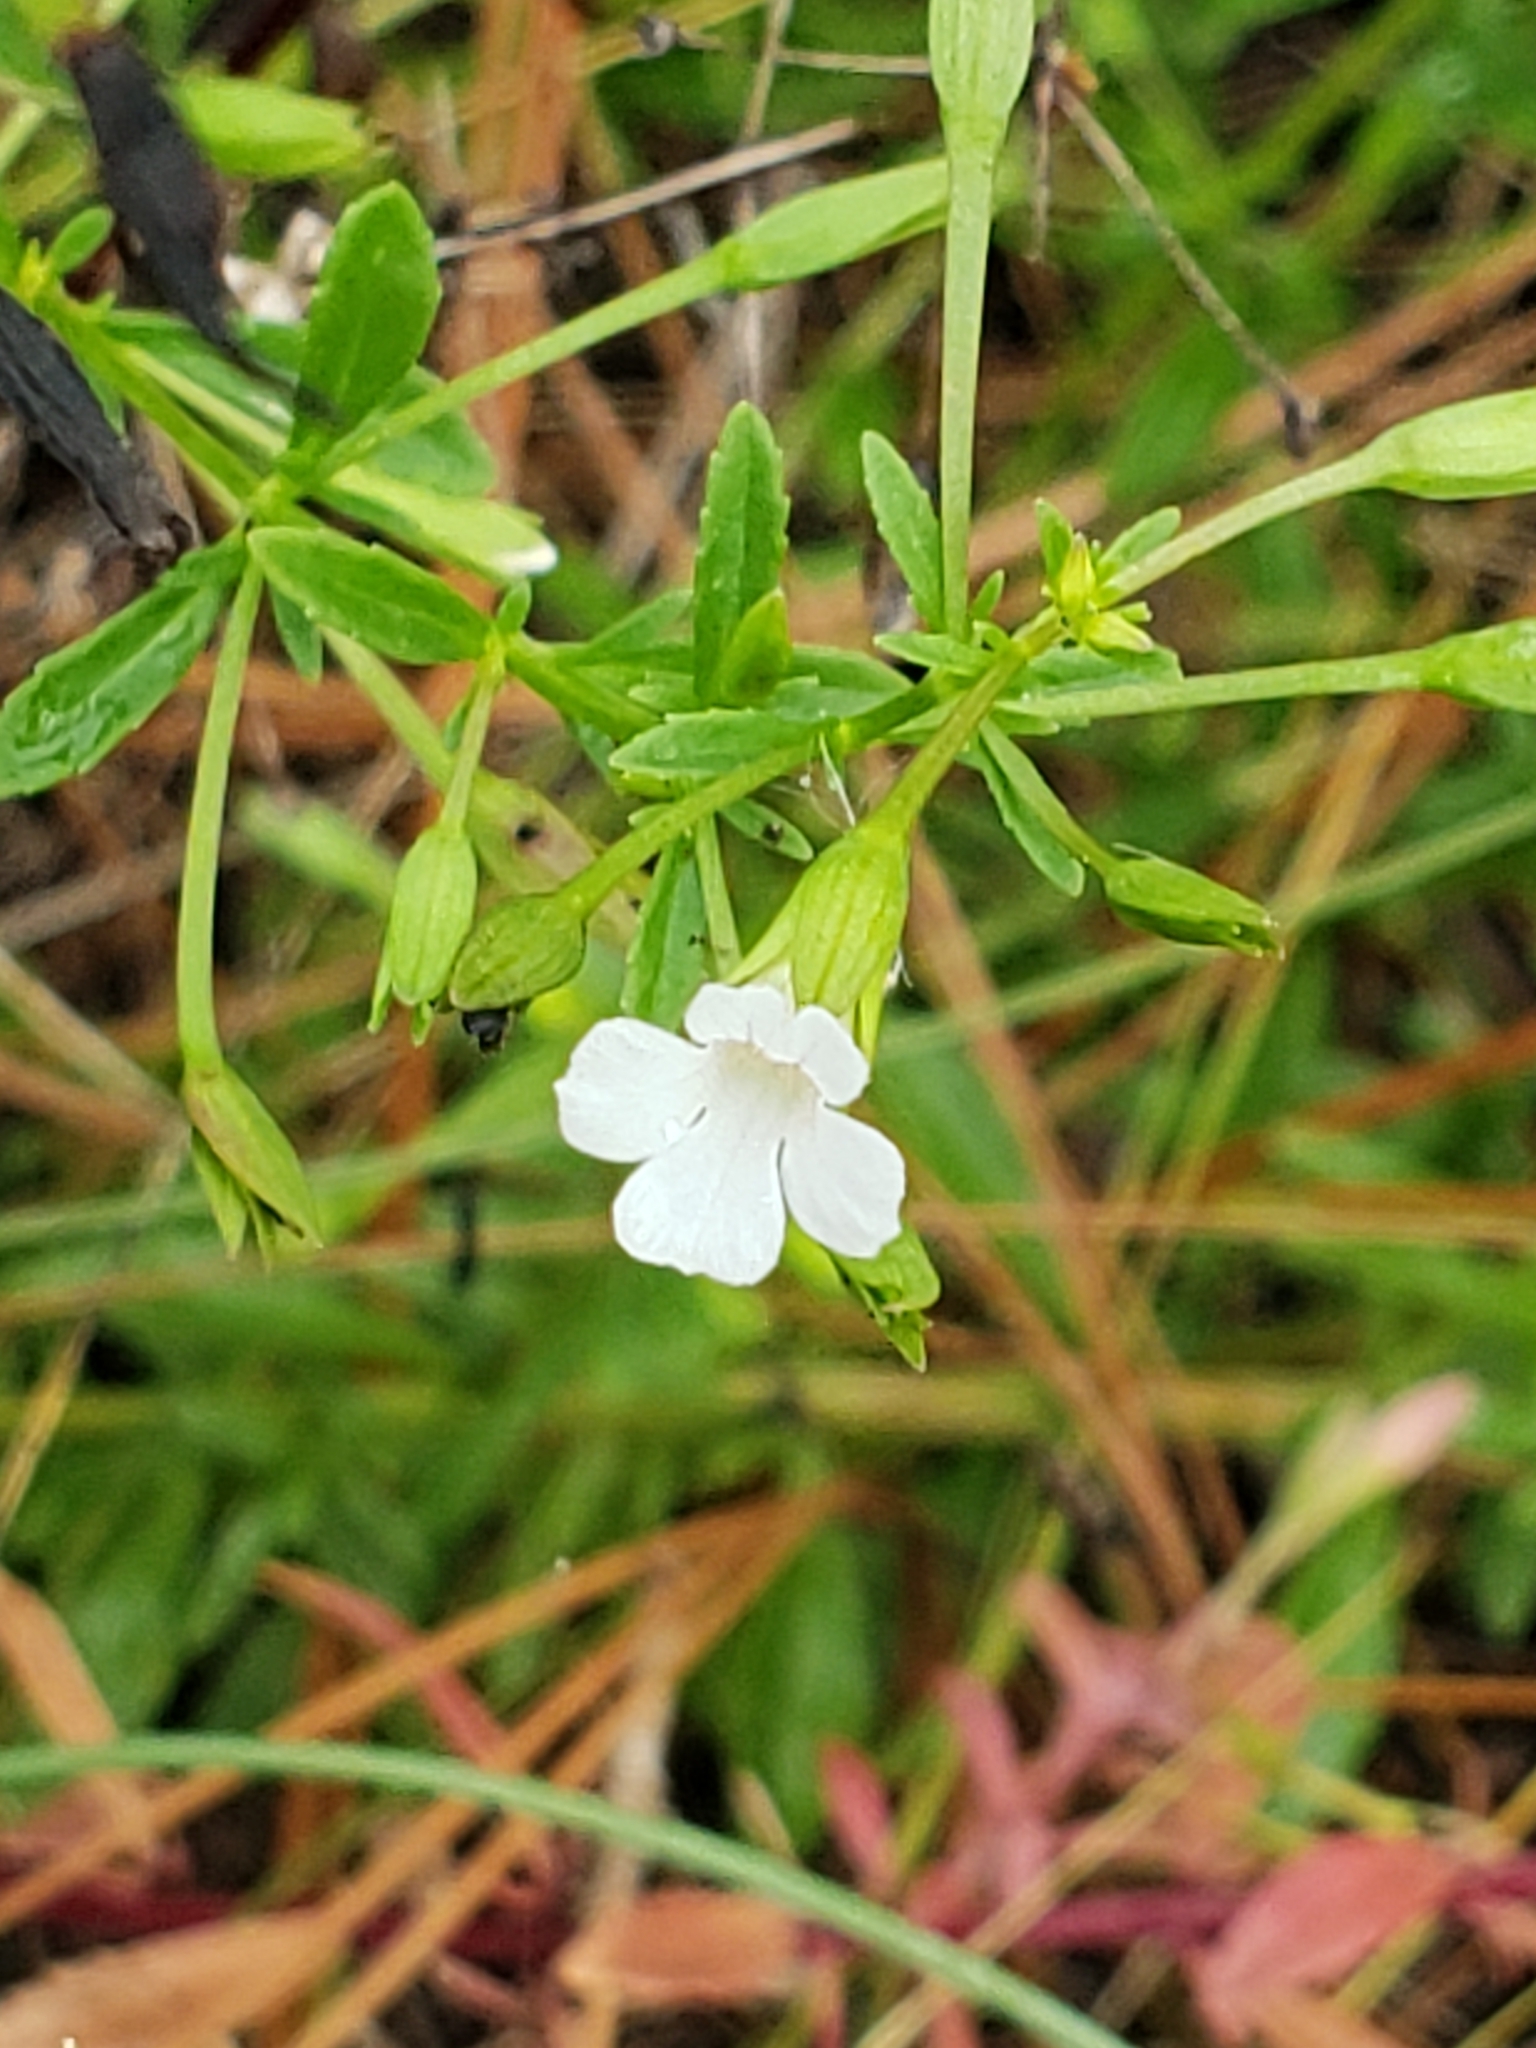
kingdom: Plantae
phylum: Tracheophyta
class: Magnoliopsida
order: Lamiales
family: Plantaginaceae
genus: Mecardonia
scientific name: Mecardonia acuminata
